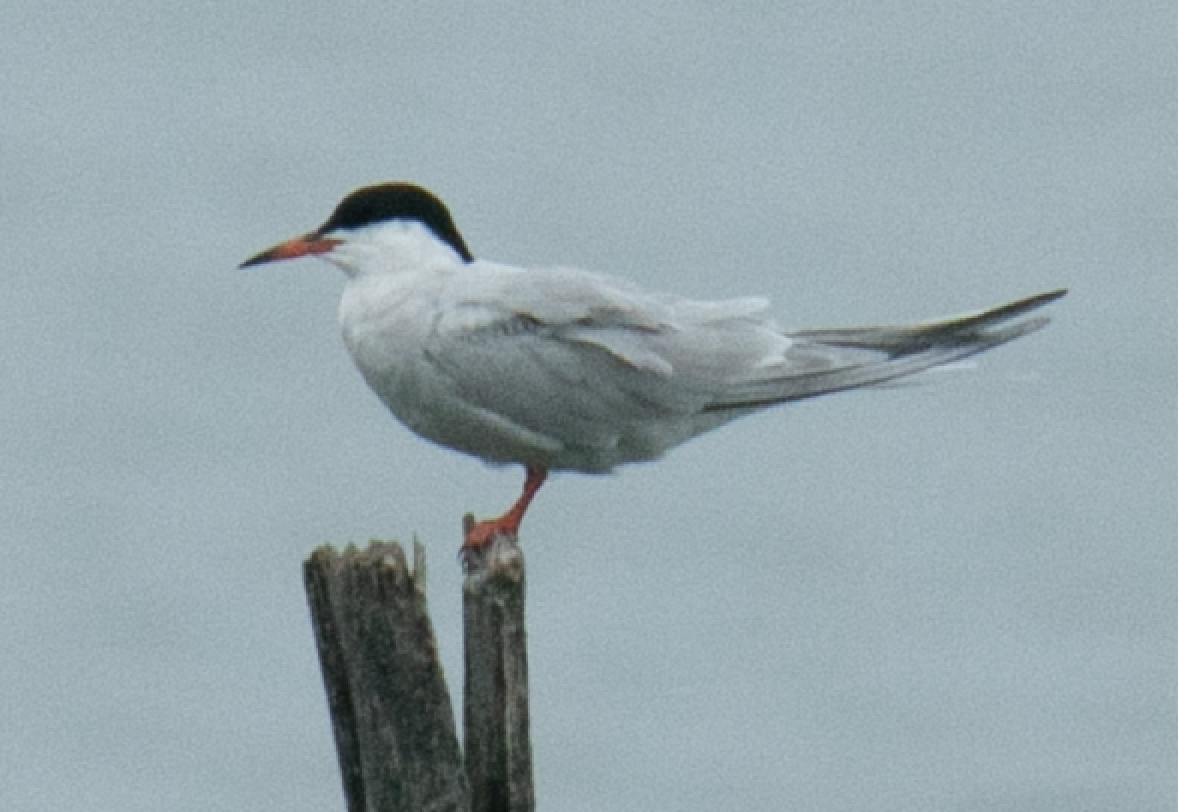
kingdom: Animalia
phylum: Chordata
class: Aves
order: Charadriiformes
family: Laridae
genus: Sterna
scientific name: Sterna hirundo
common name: Common tern
